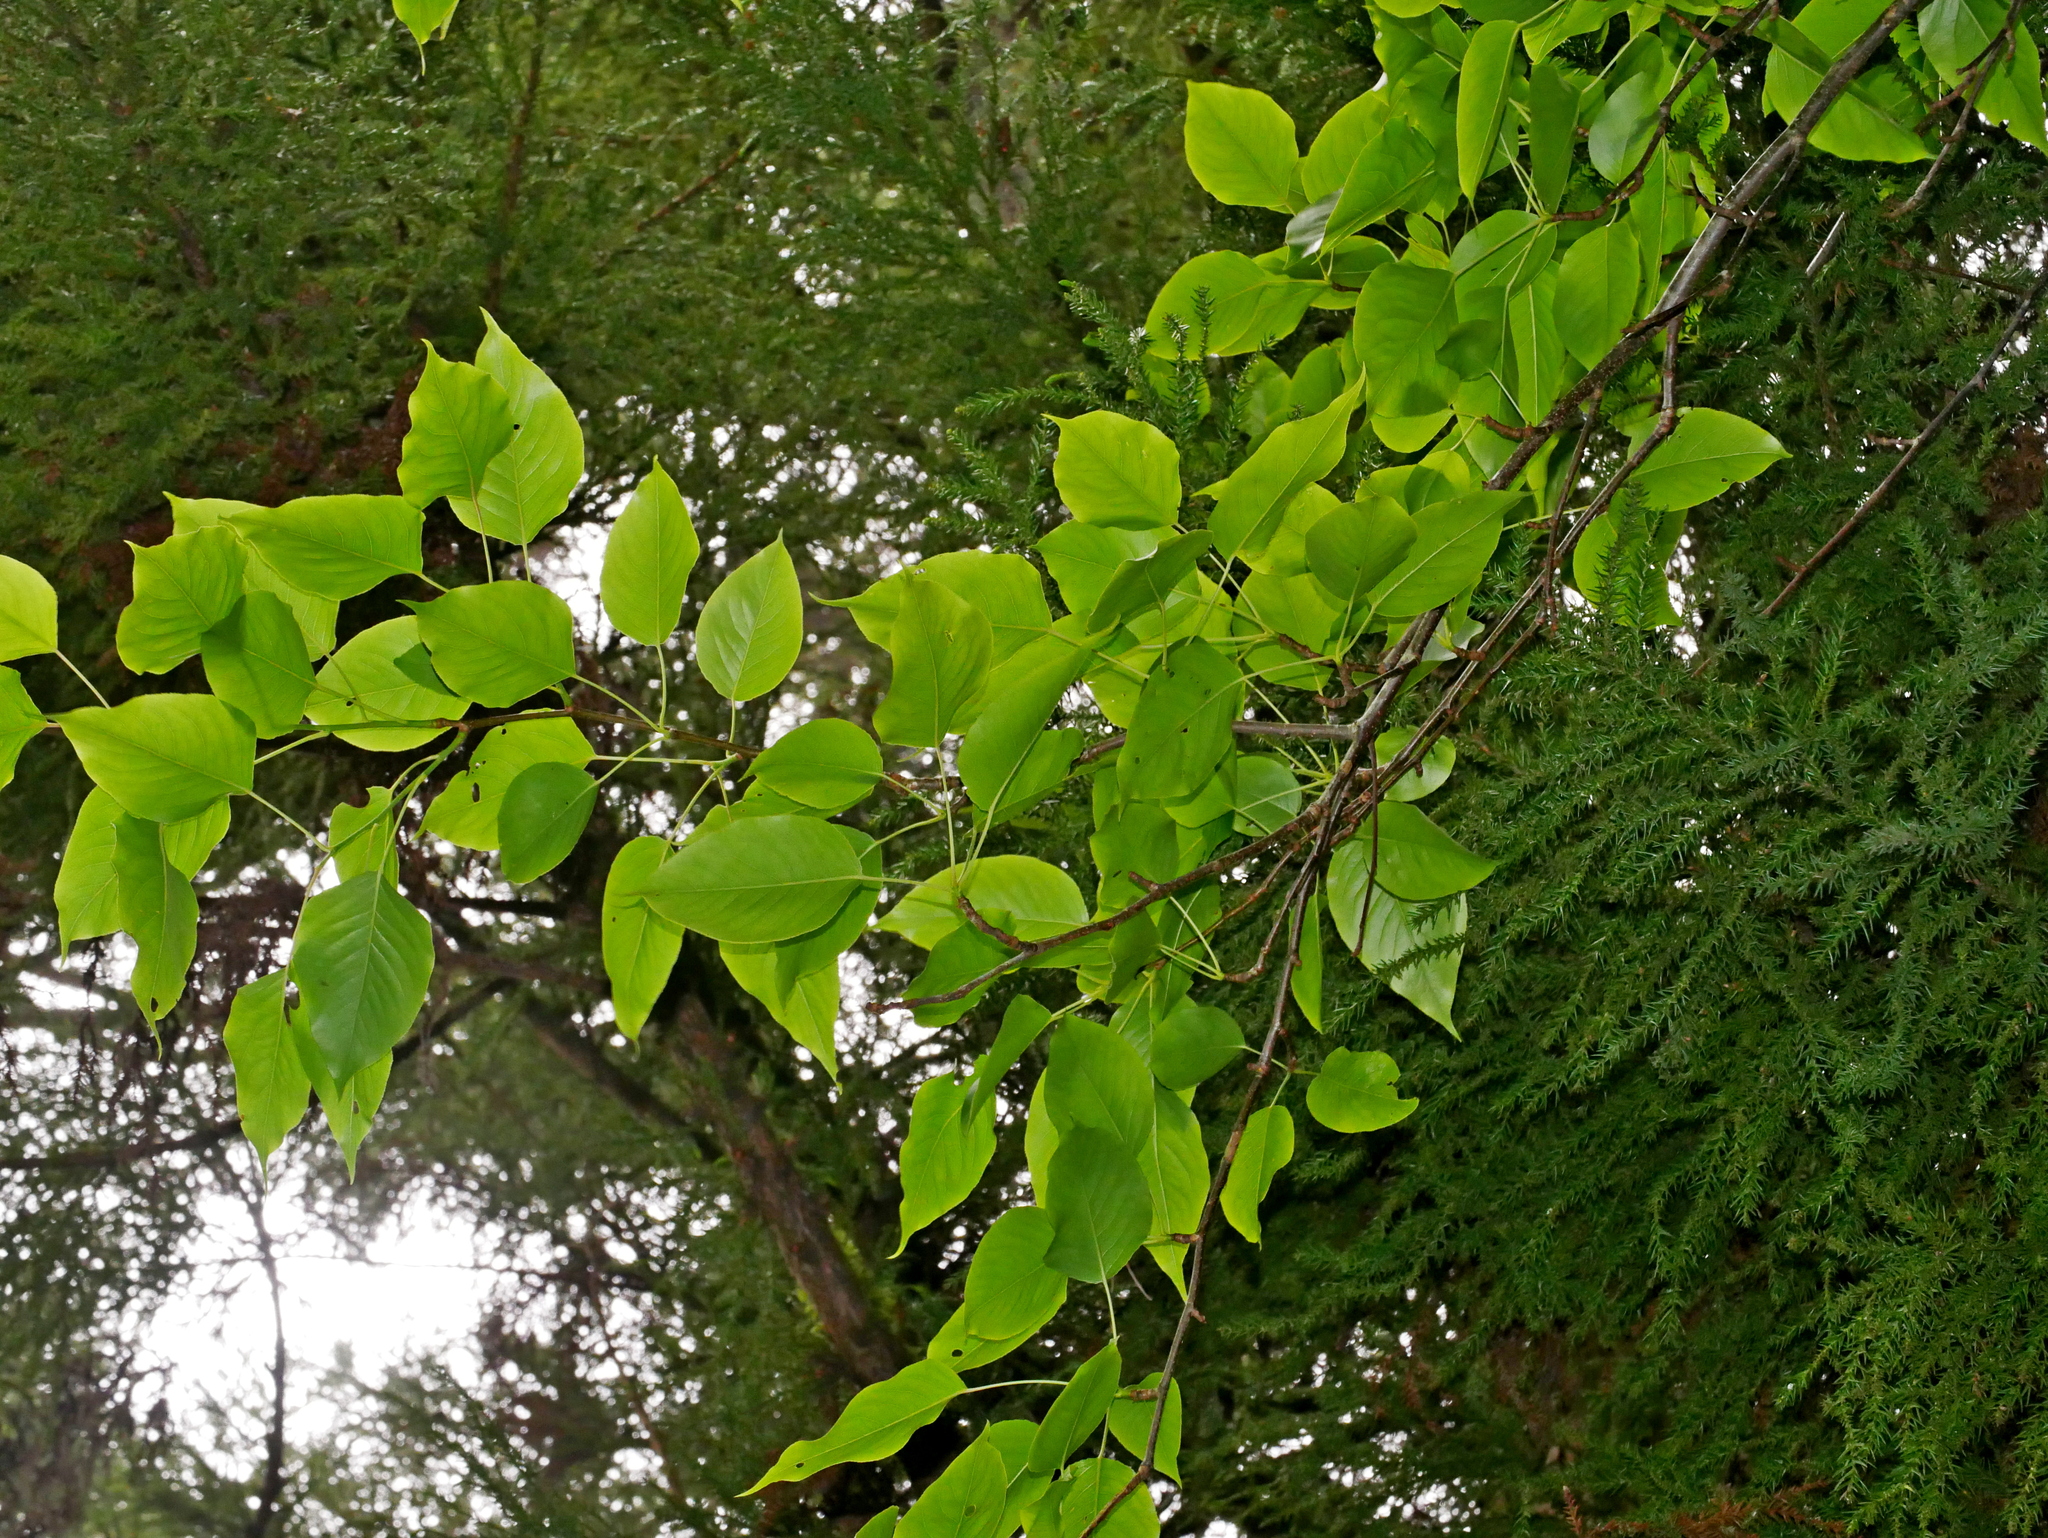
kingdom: Plantae
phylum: Tracheophyta
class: Magnoliopsida
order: Rosales
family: Rosaceae
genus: Pyrus
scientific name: Pyrus calleryana
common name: Callery pear
